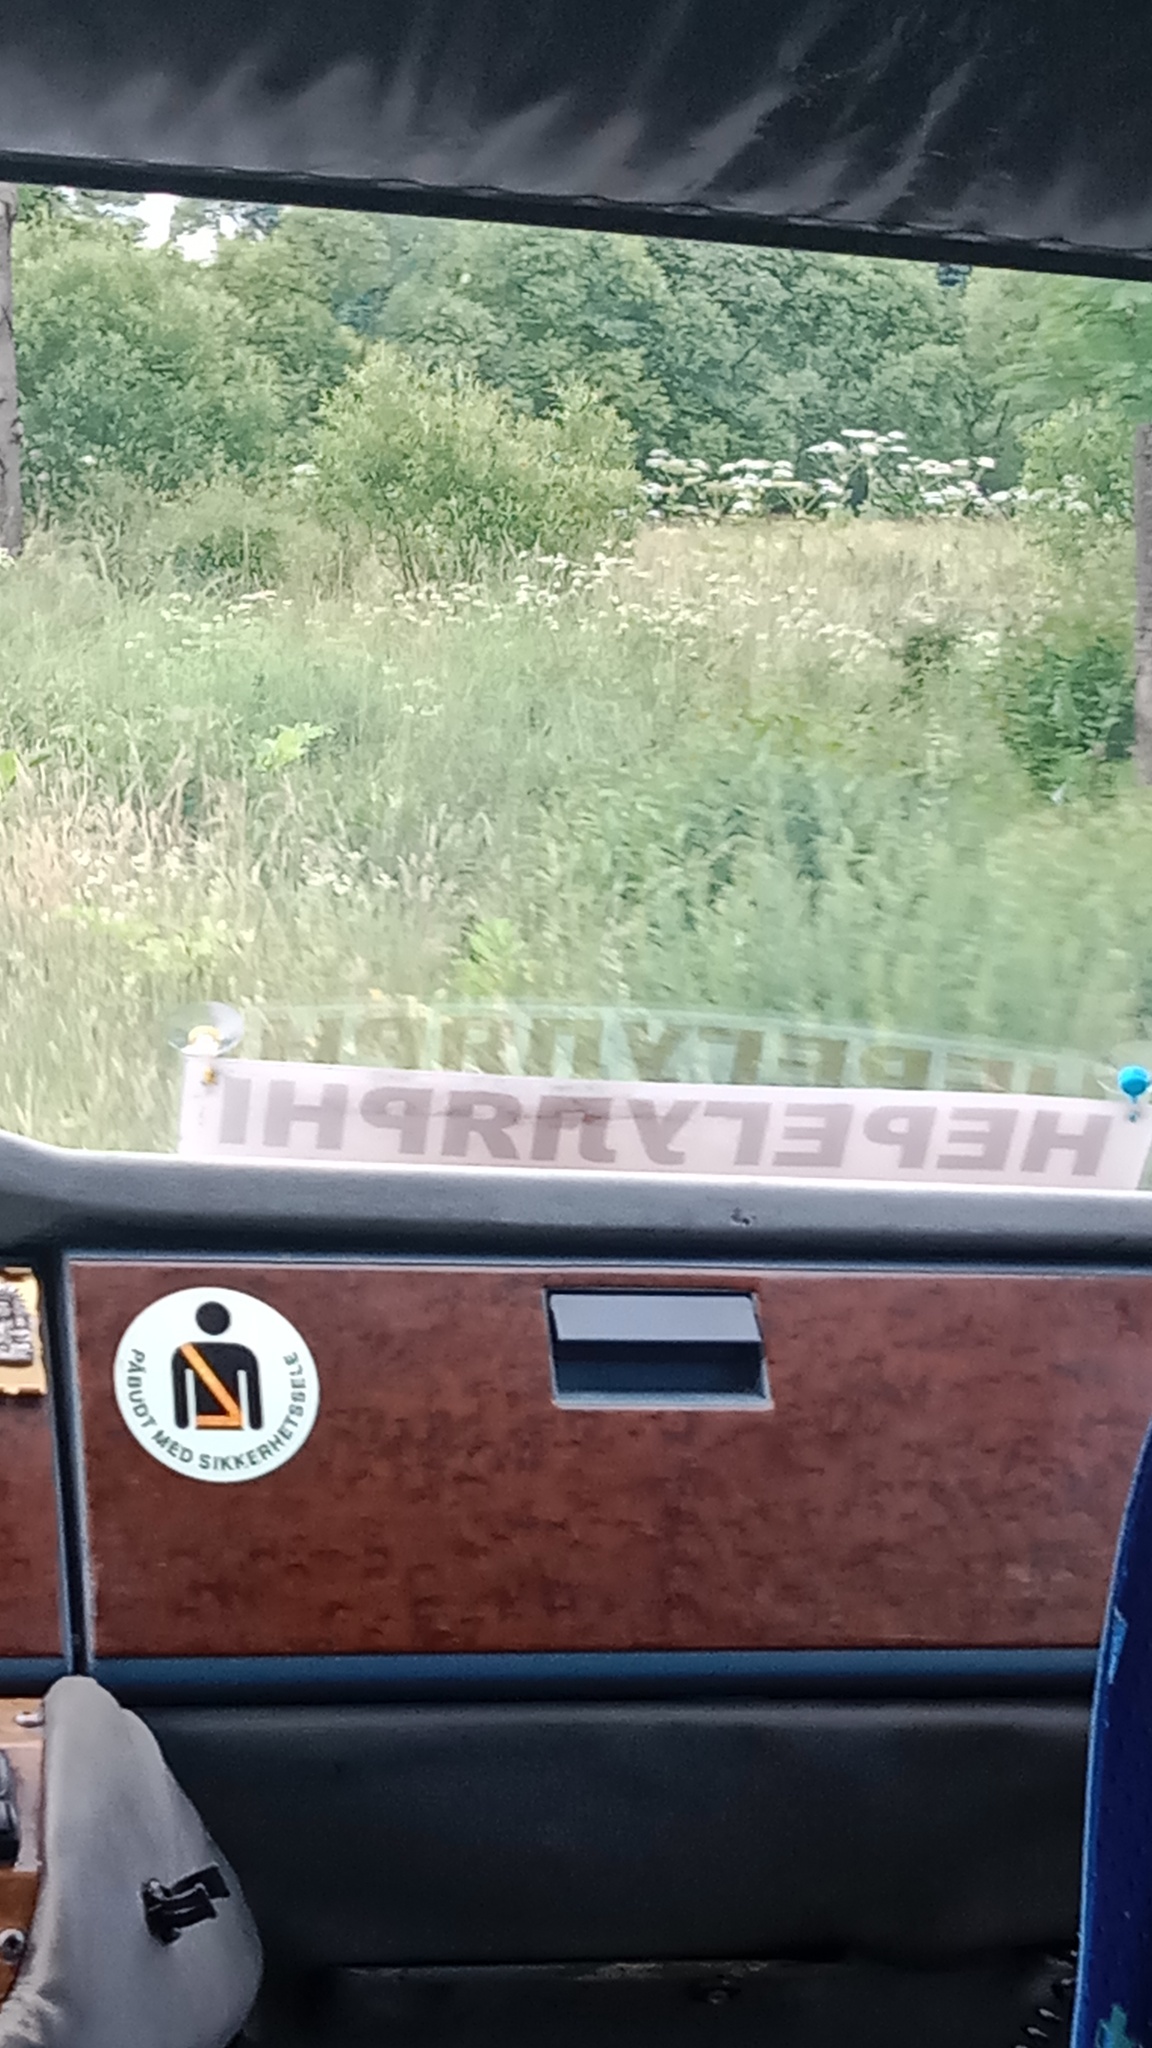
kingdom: Plantae
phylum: Tracheophyta
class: Magnoliopsida
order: Apiales
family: Apiaceae
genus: Heracleum
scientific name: Heracleum sosnowskyi
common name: Sosnowsky's hogweed
